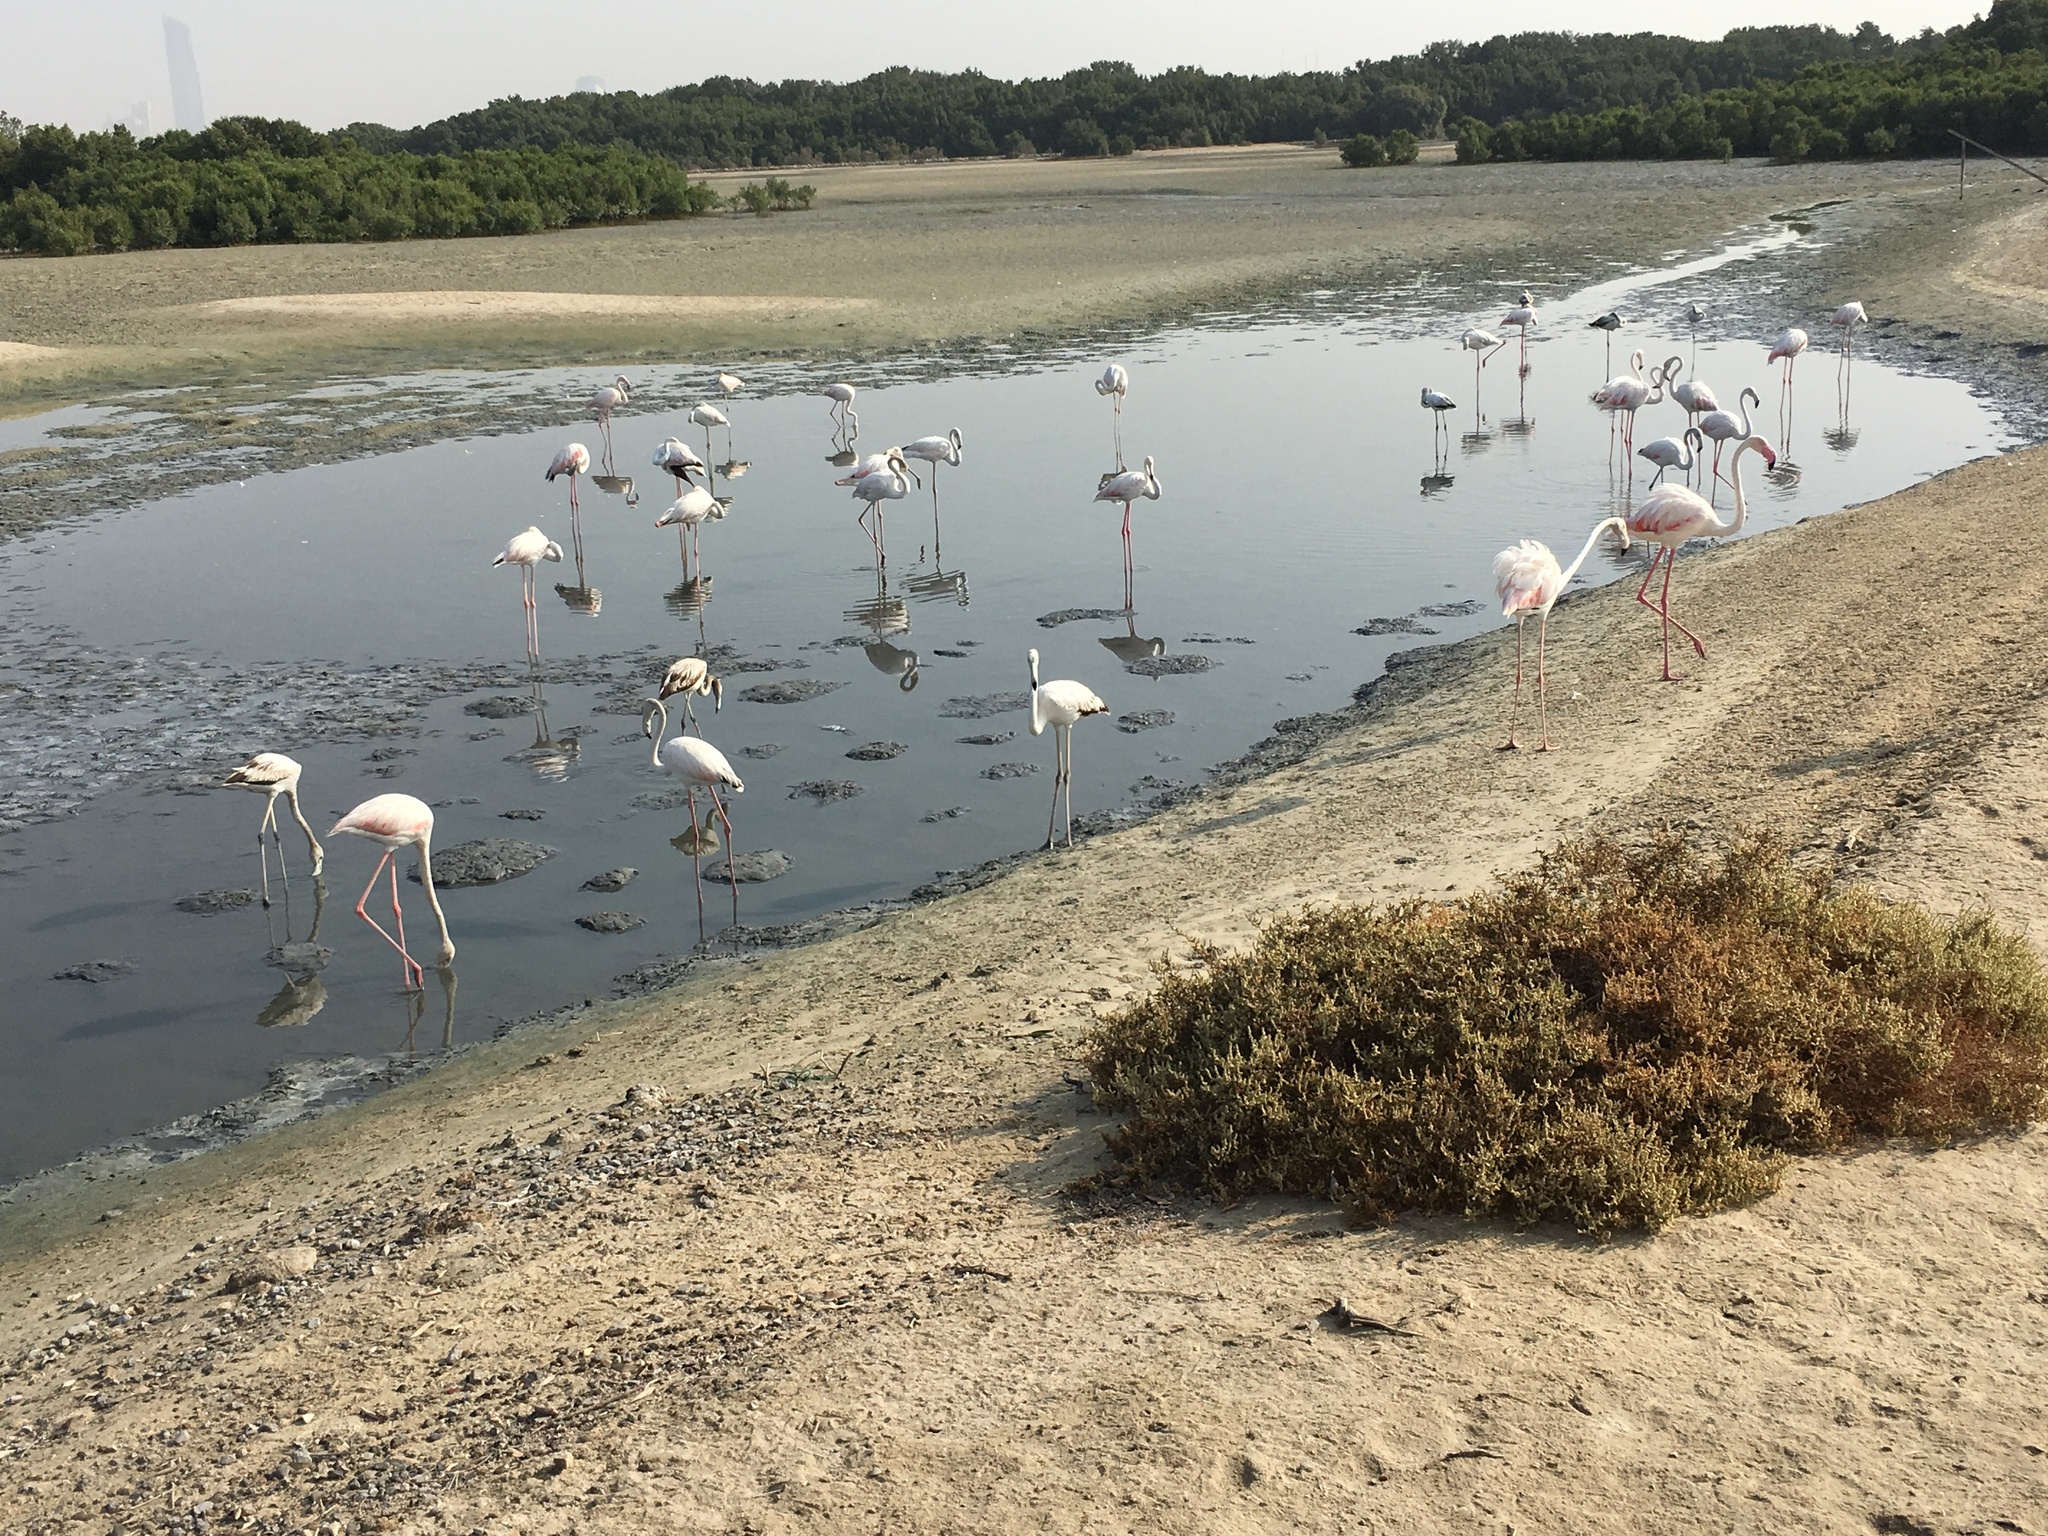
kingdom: Animalia
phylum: Chordata
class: Aves
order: Phoenicopteriformes
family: Phoenicopteridae
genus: Phoenicopterus
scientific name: Phoenicopterus roseus
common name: Greater flamingo
